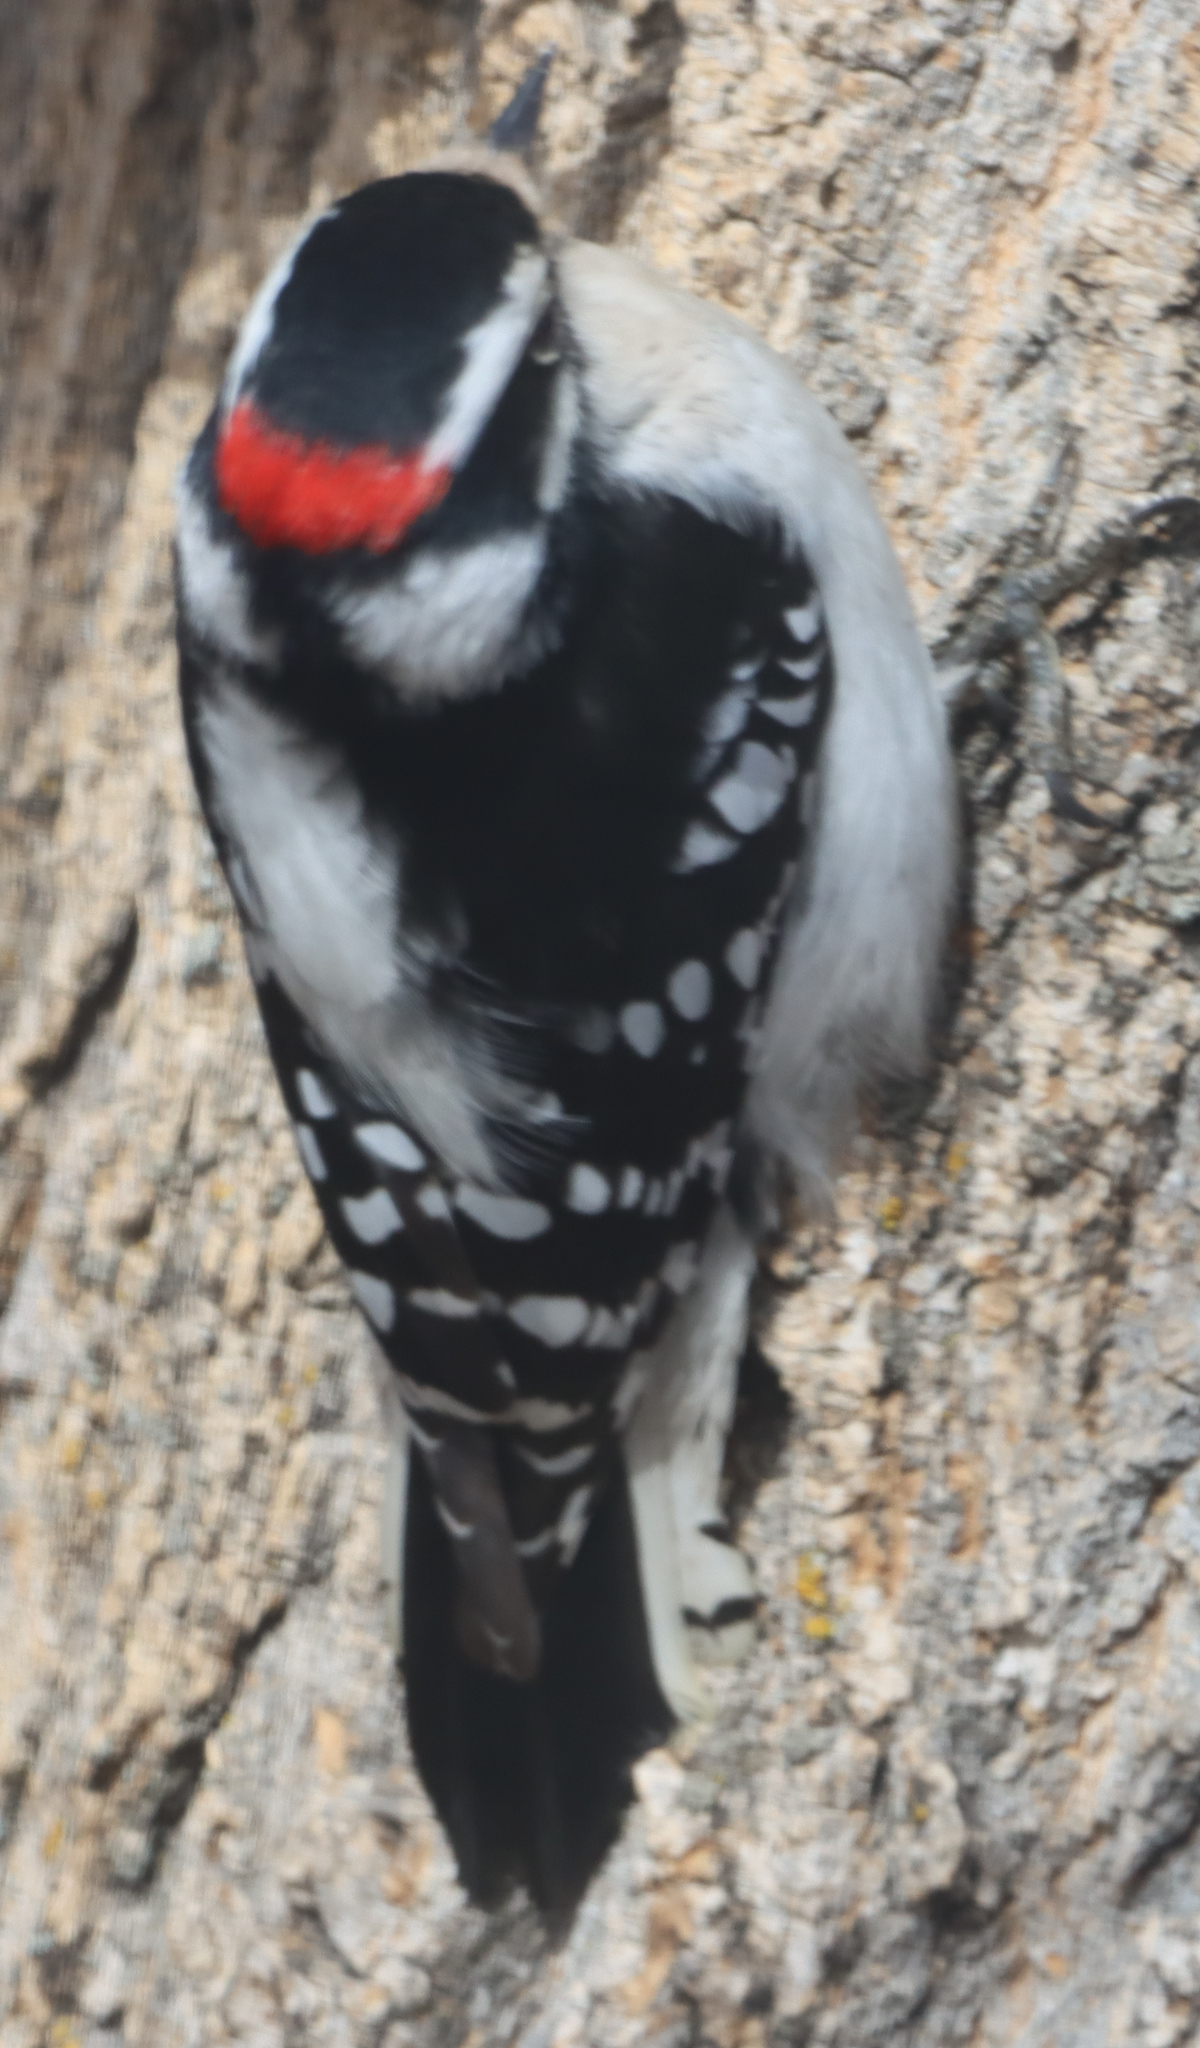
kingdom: Animalia
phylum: Chordata
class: Aves
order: Piciformes
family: Picidae
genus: Dryobates
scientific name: Dryobates pubescens
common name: Downy woodpecker
